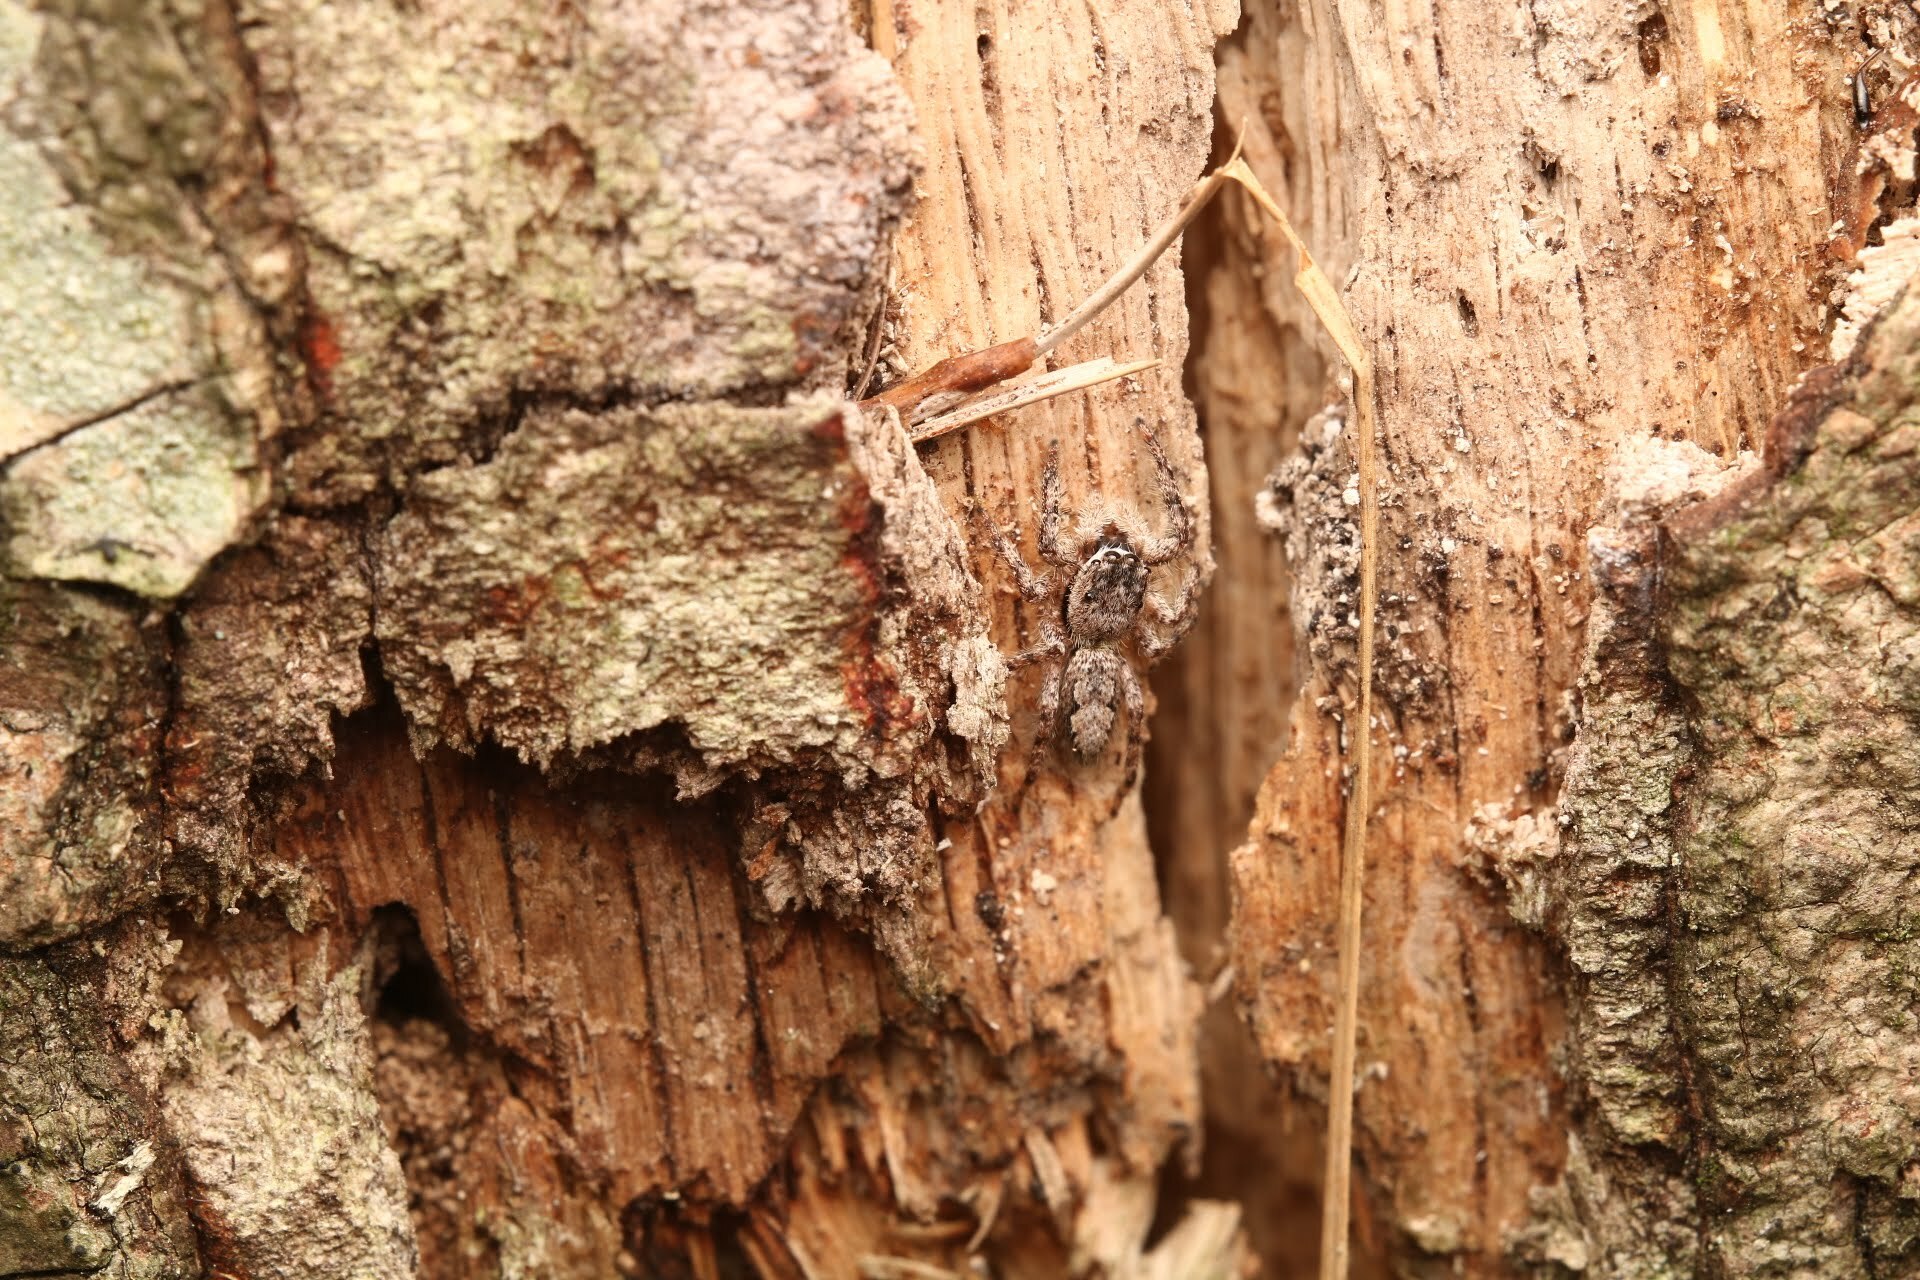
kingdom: Animalia
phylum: Arthropoda
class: Arachnida
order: Araneae
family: Salticidae
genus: Platycryptus
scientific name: Platycryptus undatus
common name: Tan jumping spider
